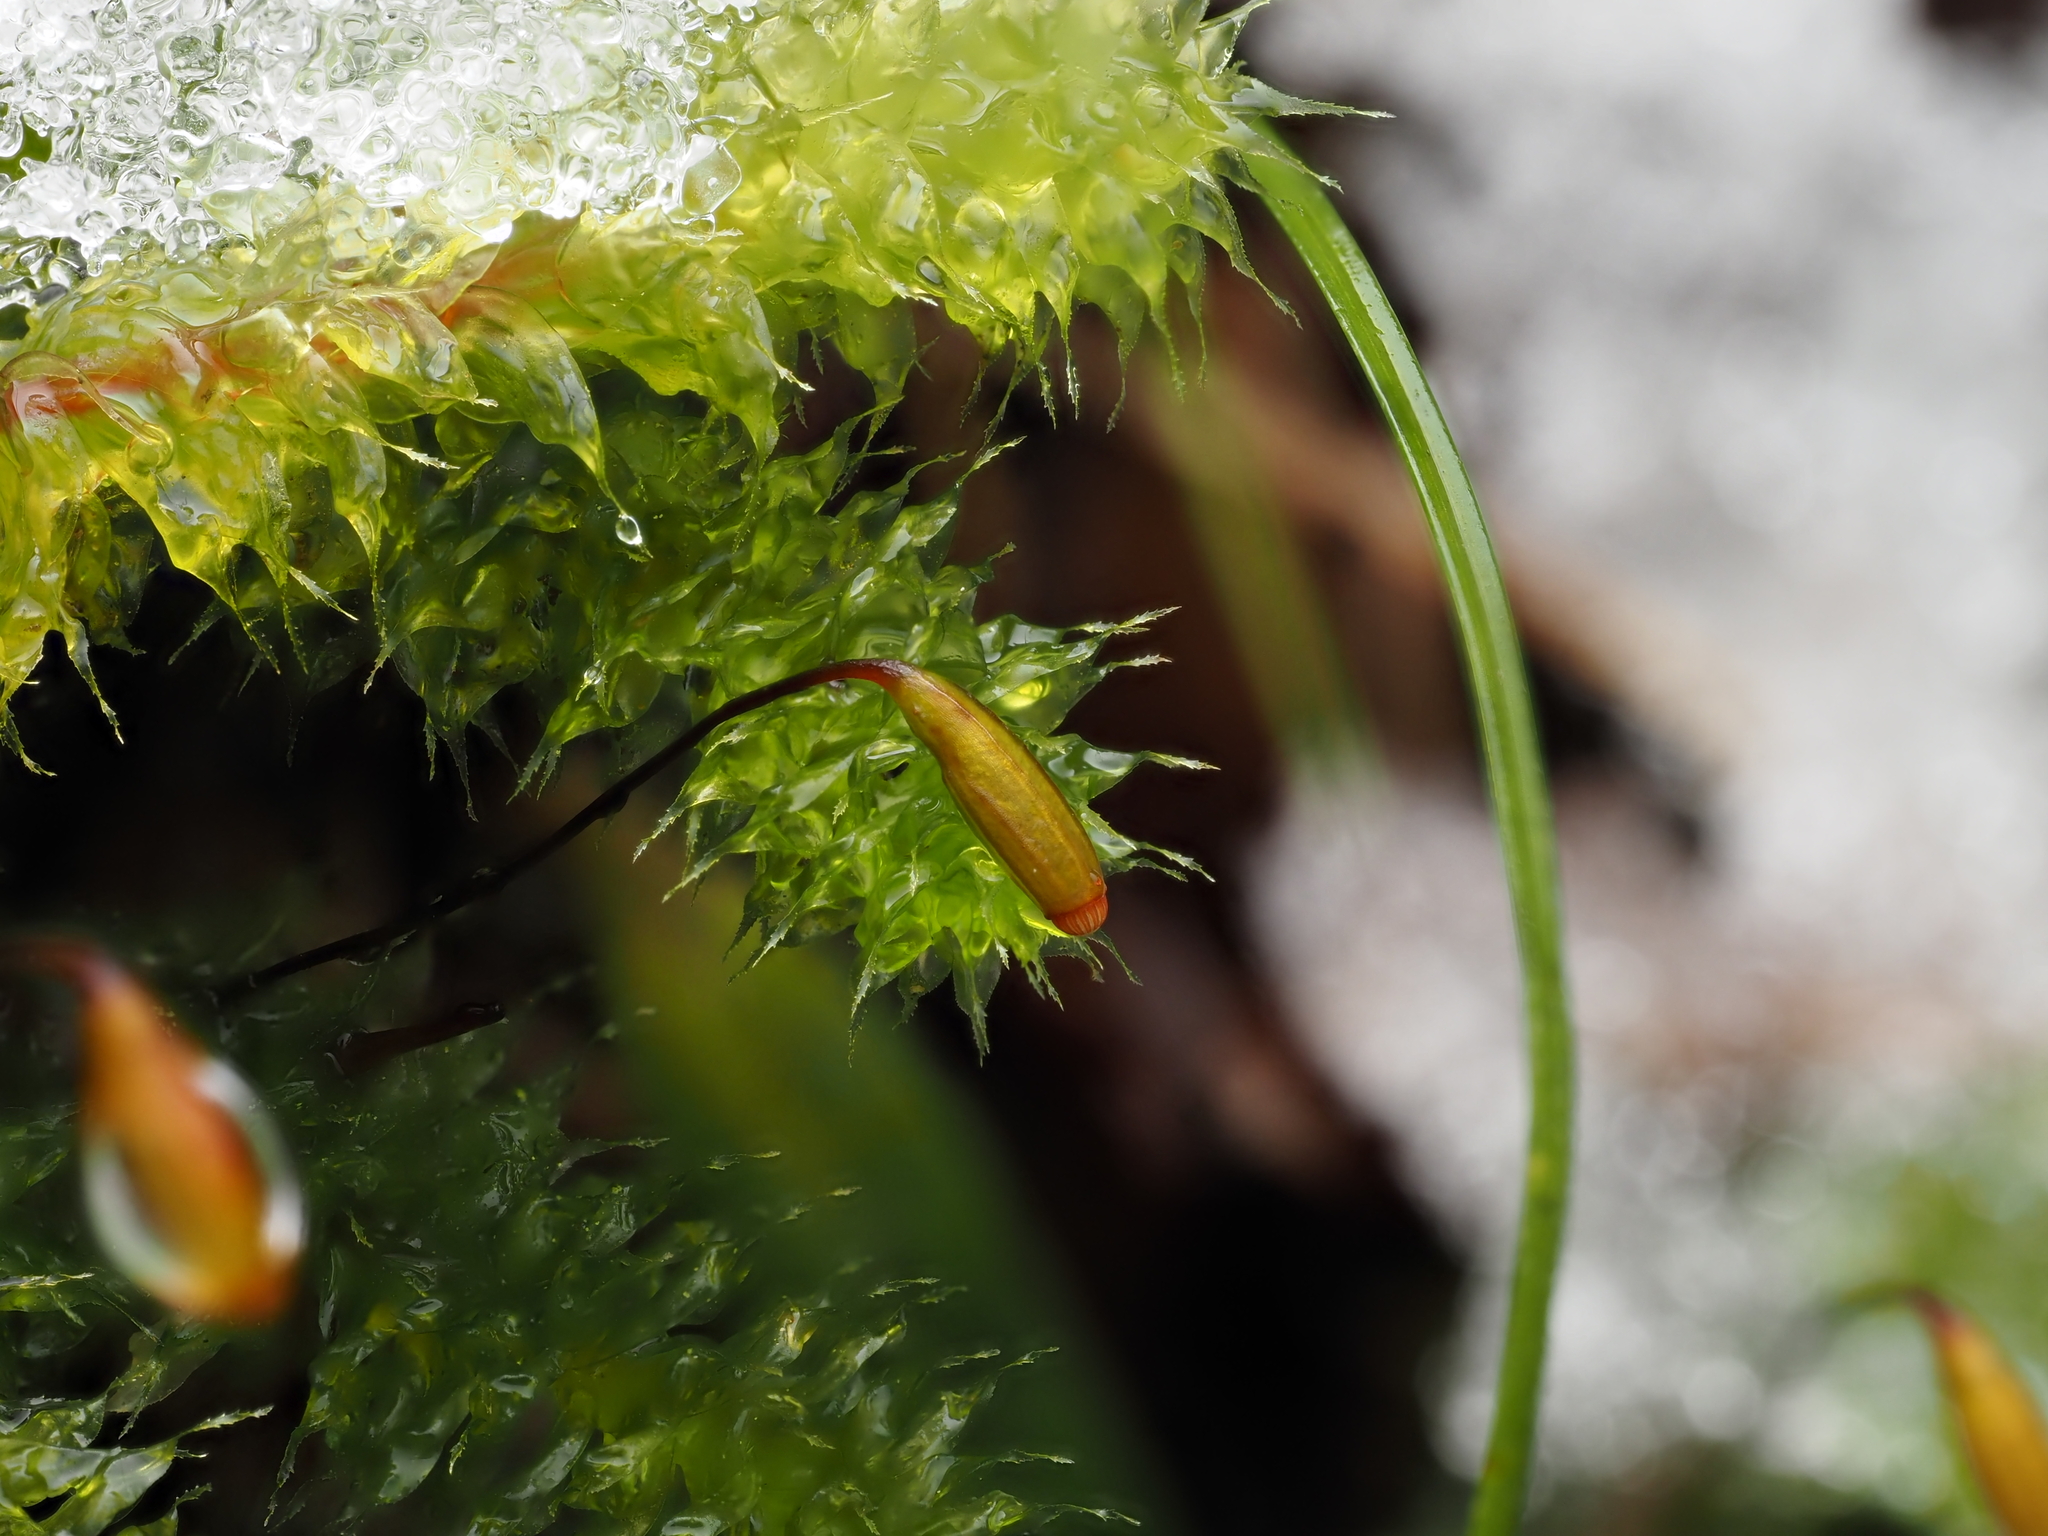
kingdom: Plantae
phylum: Bryophyta
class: Bryopsida
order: Ptychomniales
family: Ptychomniaceae
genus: Ptychomnion
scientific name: Ptychomnion aciculare
